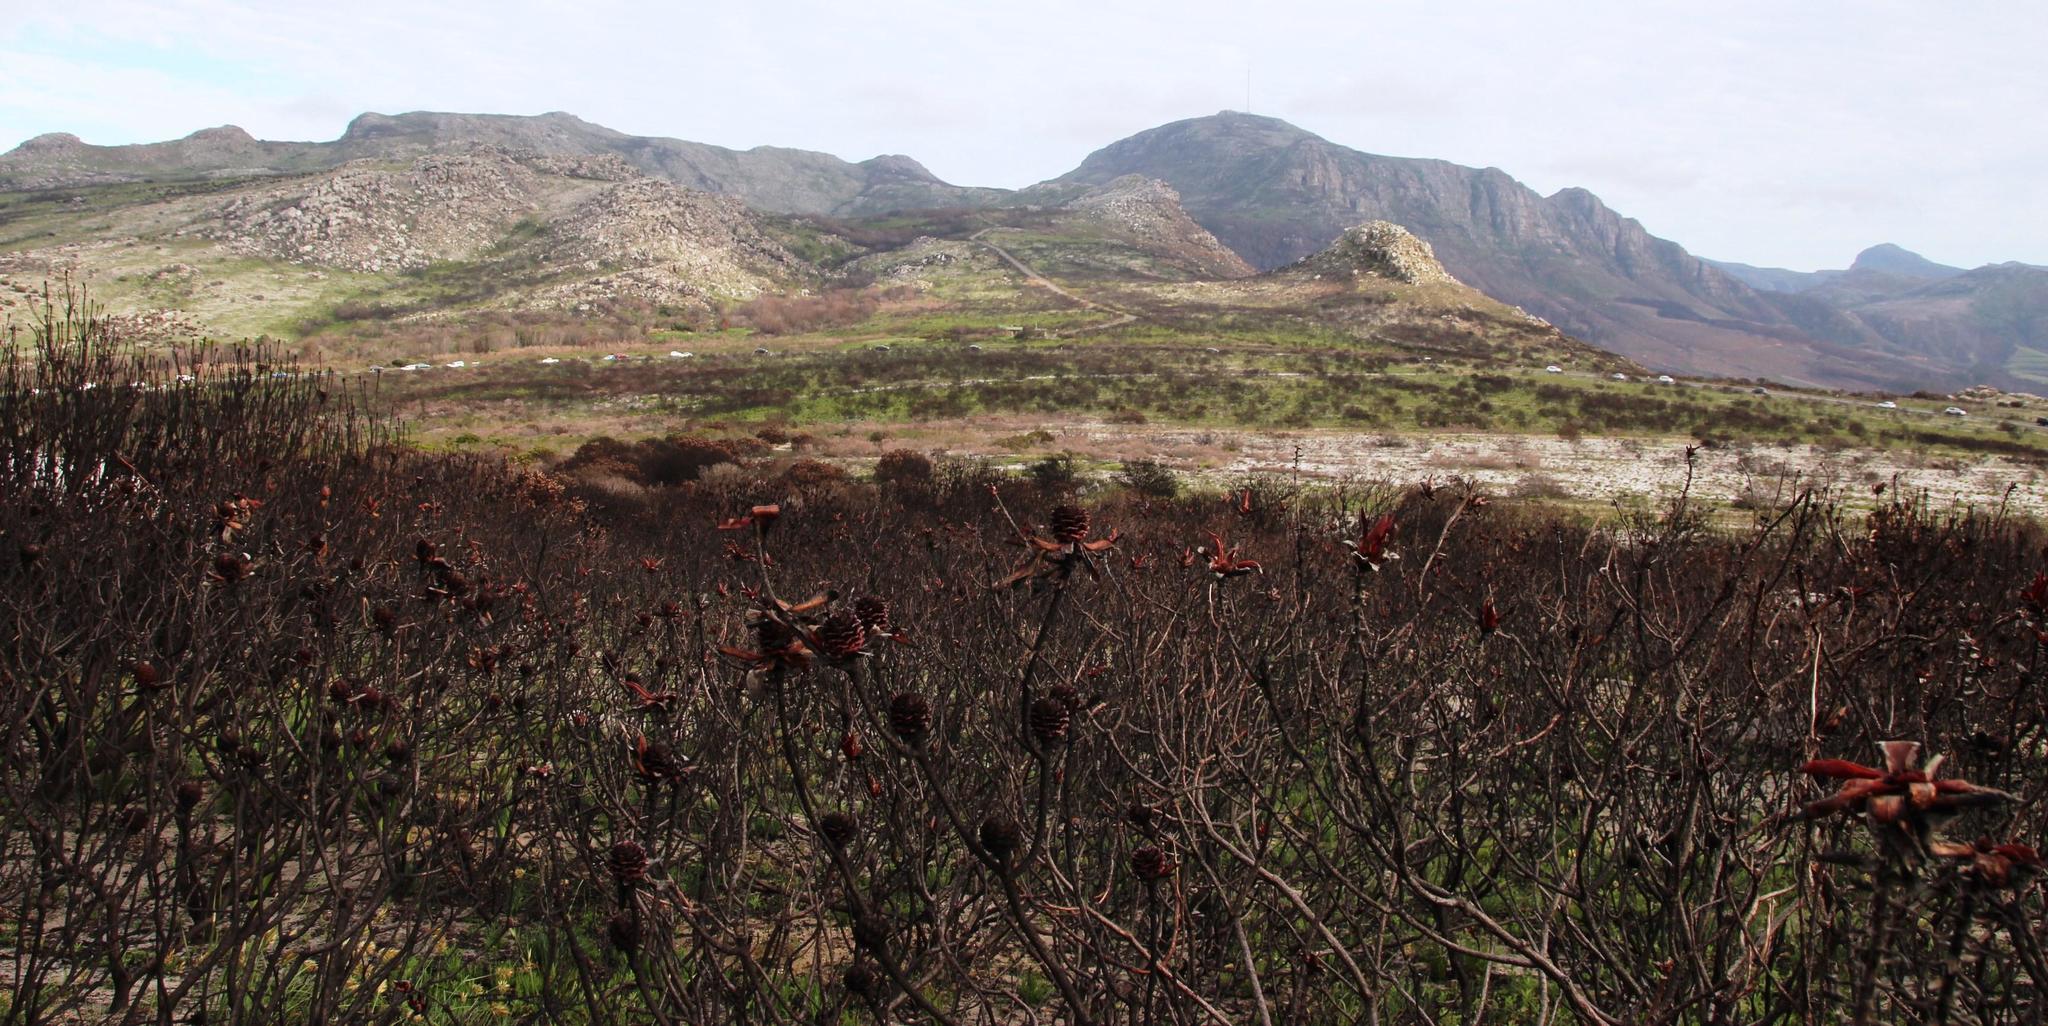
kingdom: Plantae
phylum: Tracheophyta
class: Magnoliopsida
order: Proteales
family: Proteaceae
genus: Leucadendron
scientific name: Leucadendron laureolum
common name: Golden sunshinebush
